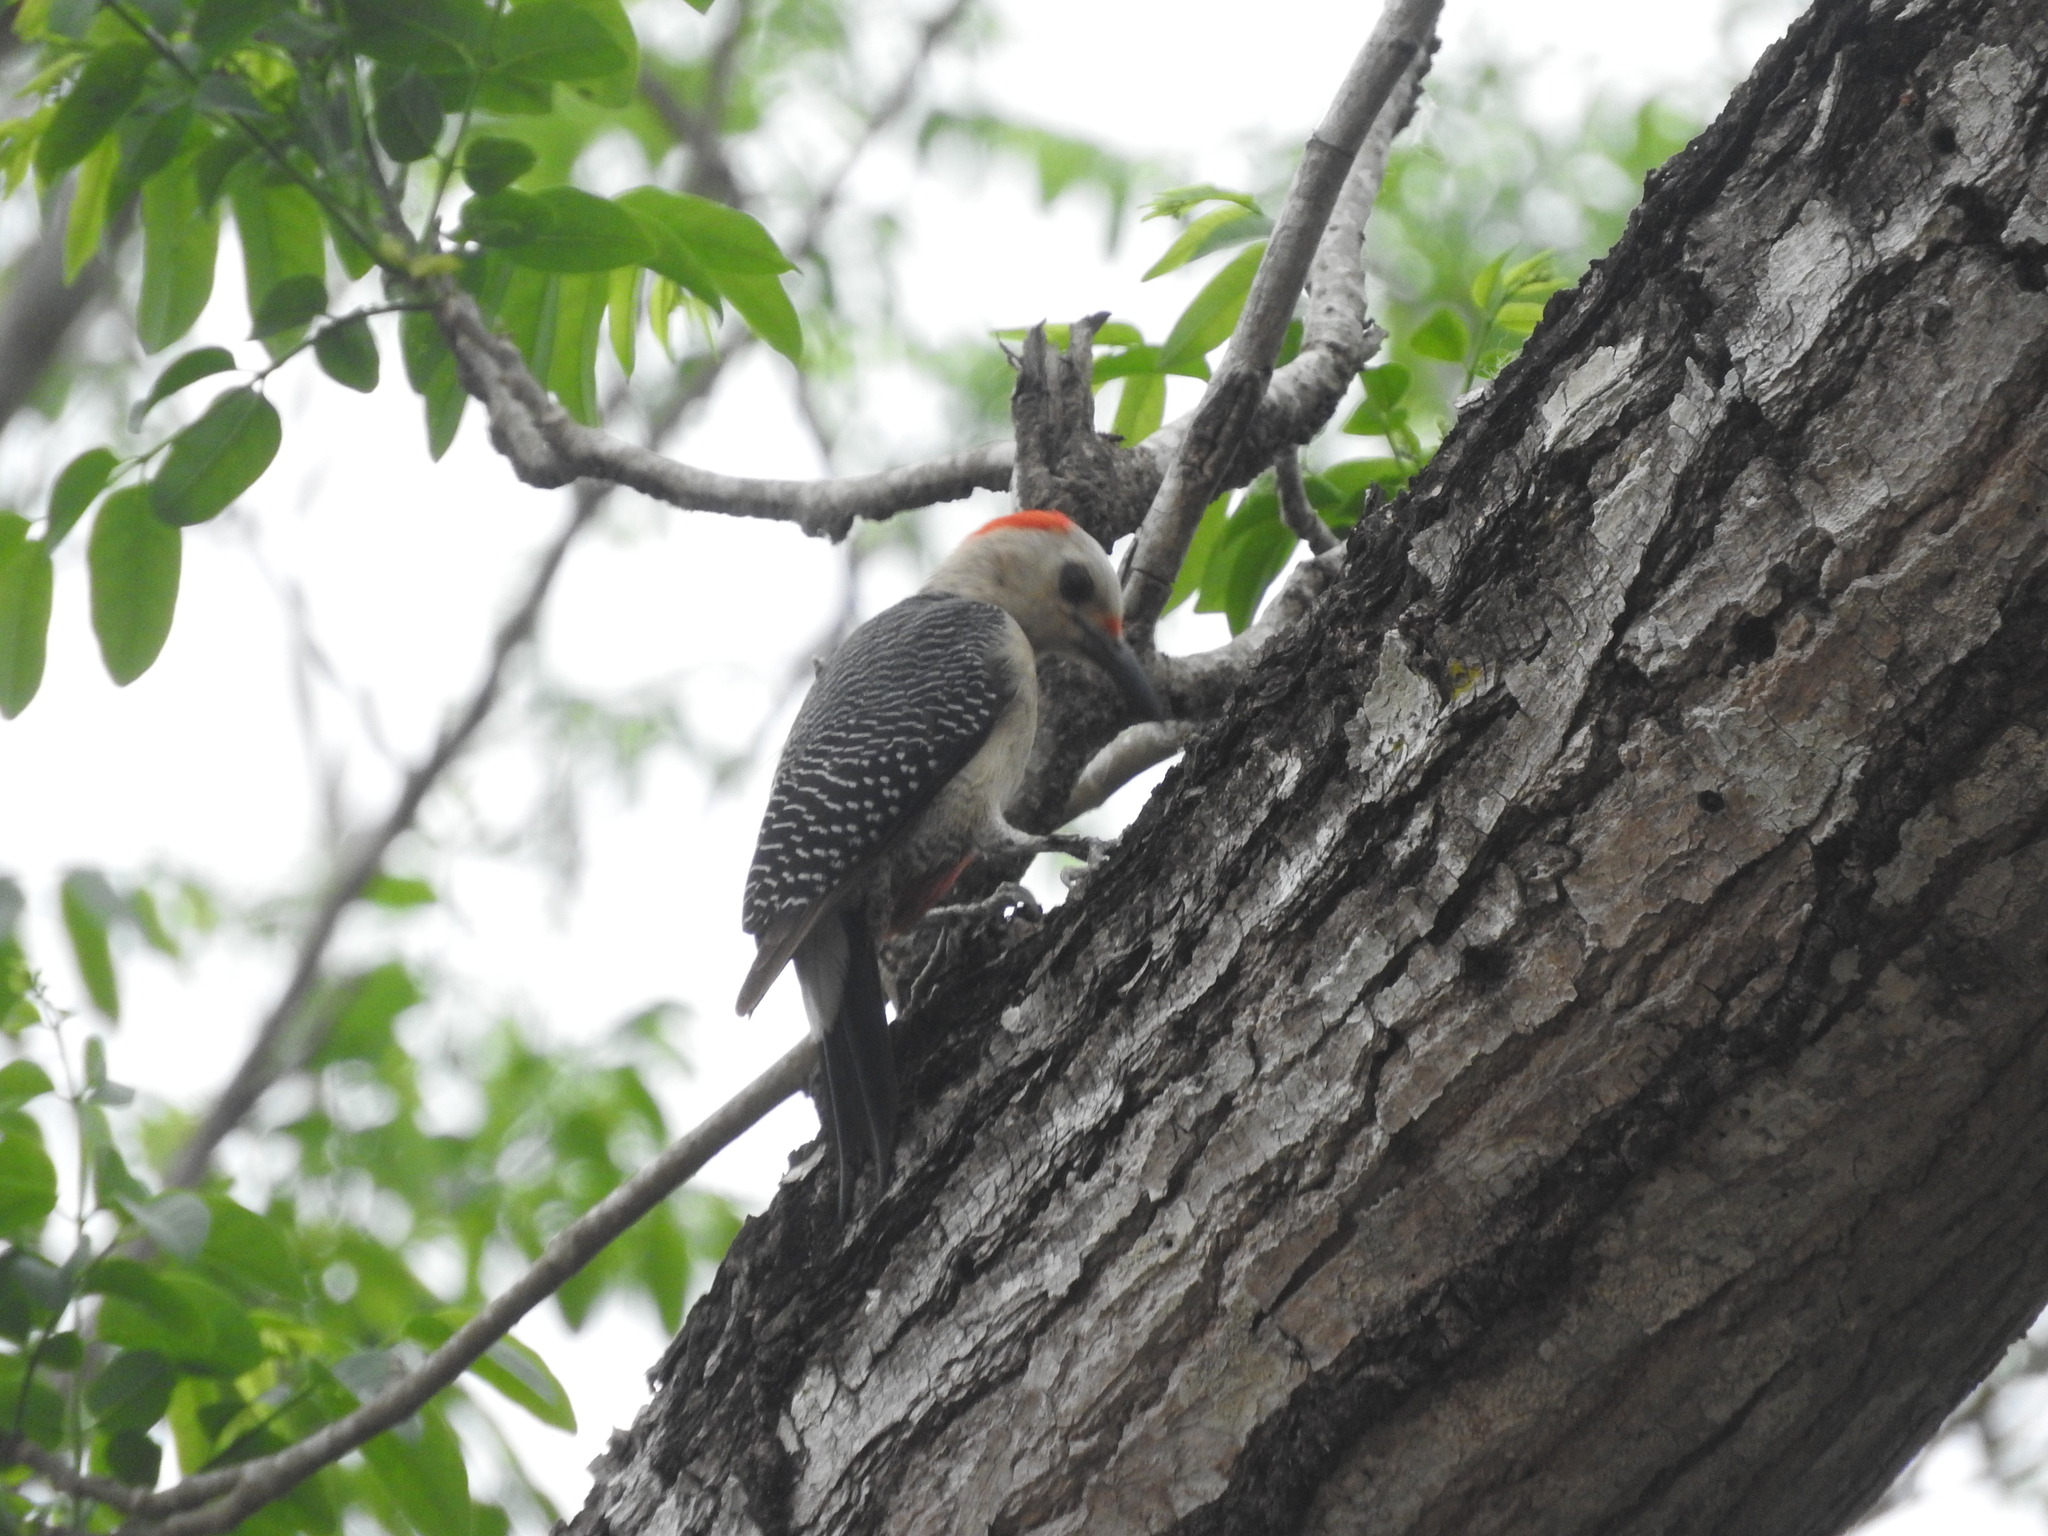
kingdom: Animalia
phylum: Chordata
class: Aves
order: Piciformes
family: Picidae
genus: Melanerpes
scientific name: Melanerpes aurifrons
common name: Golden-fronted woodpecker
